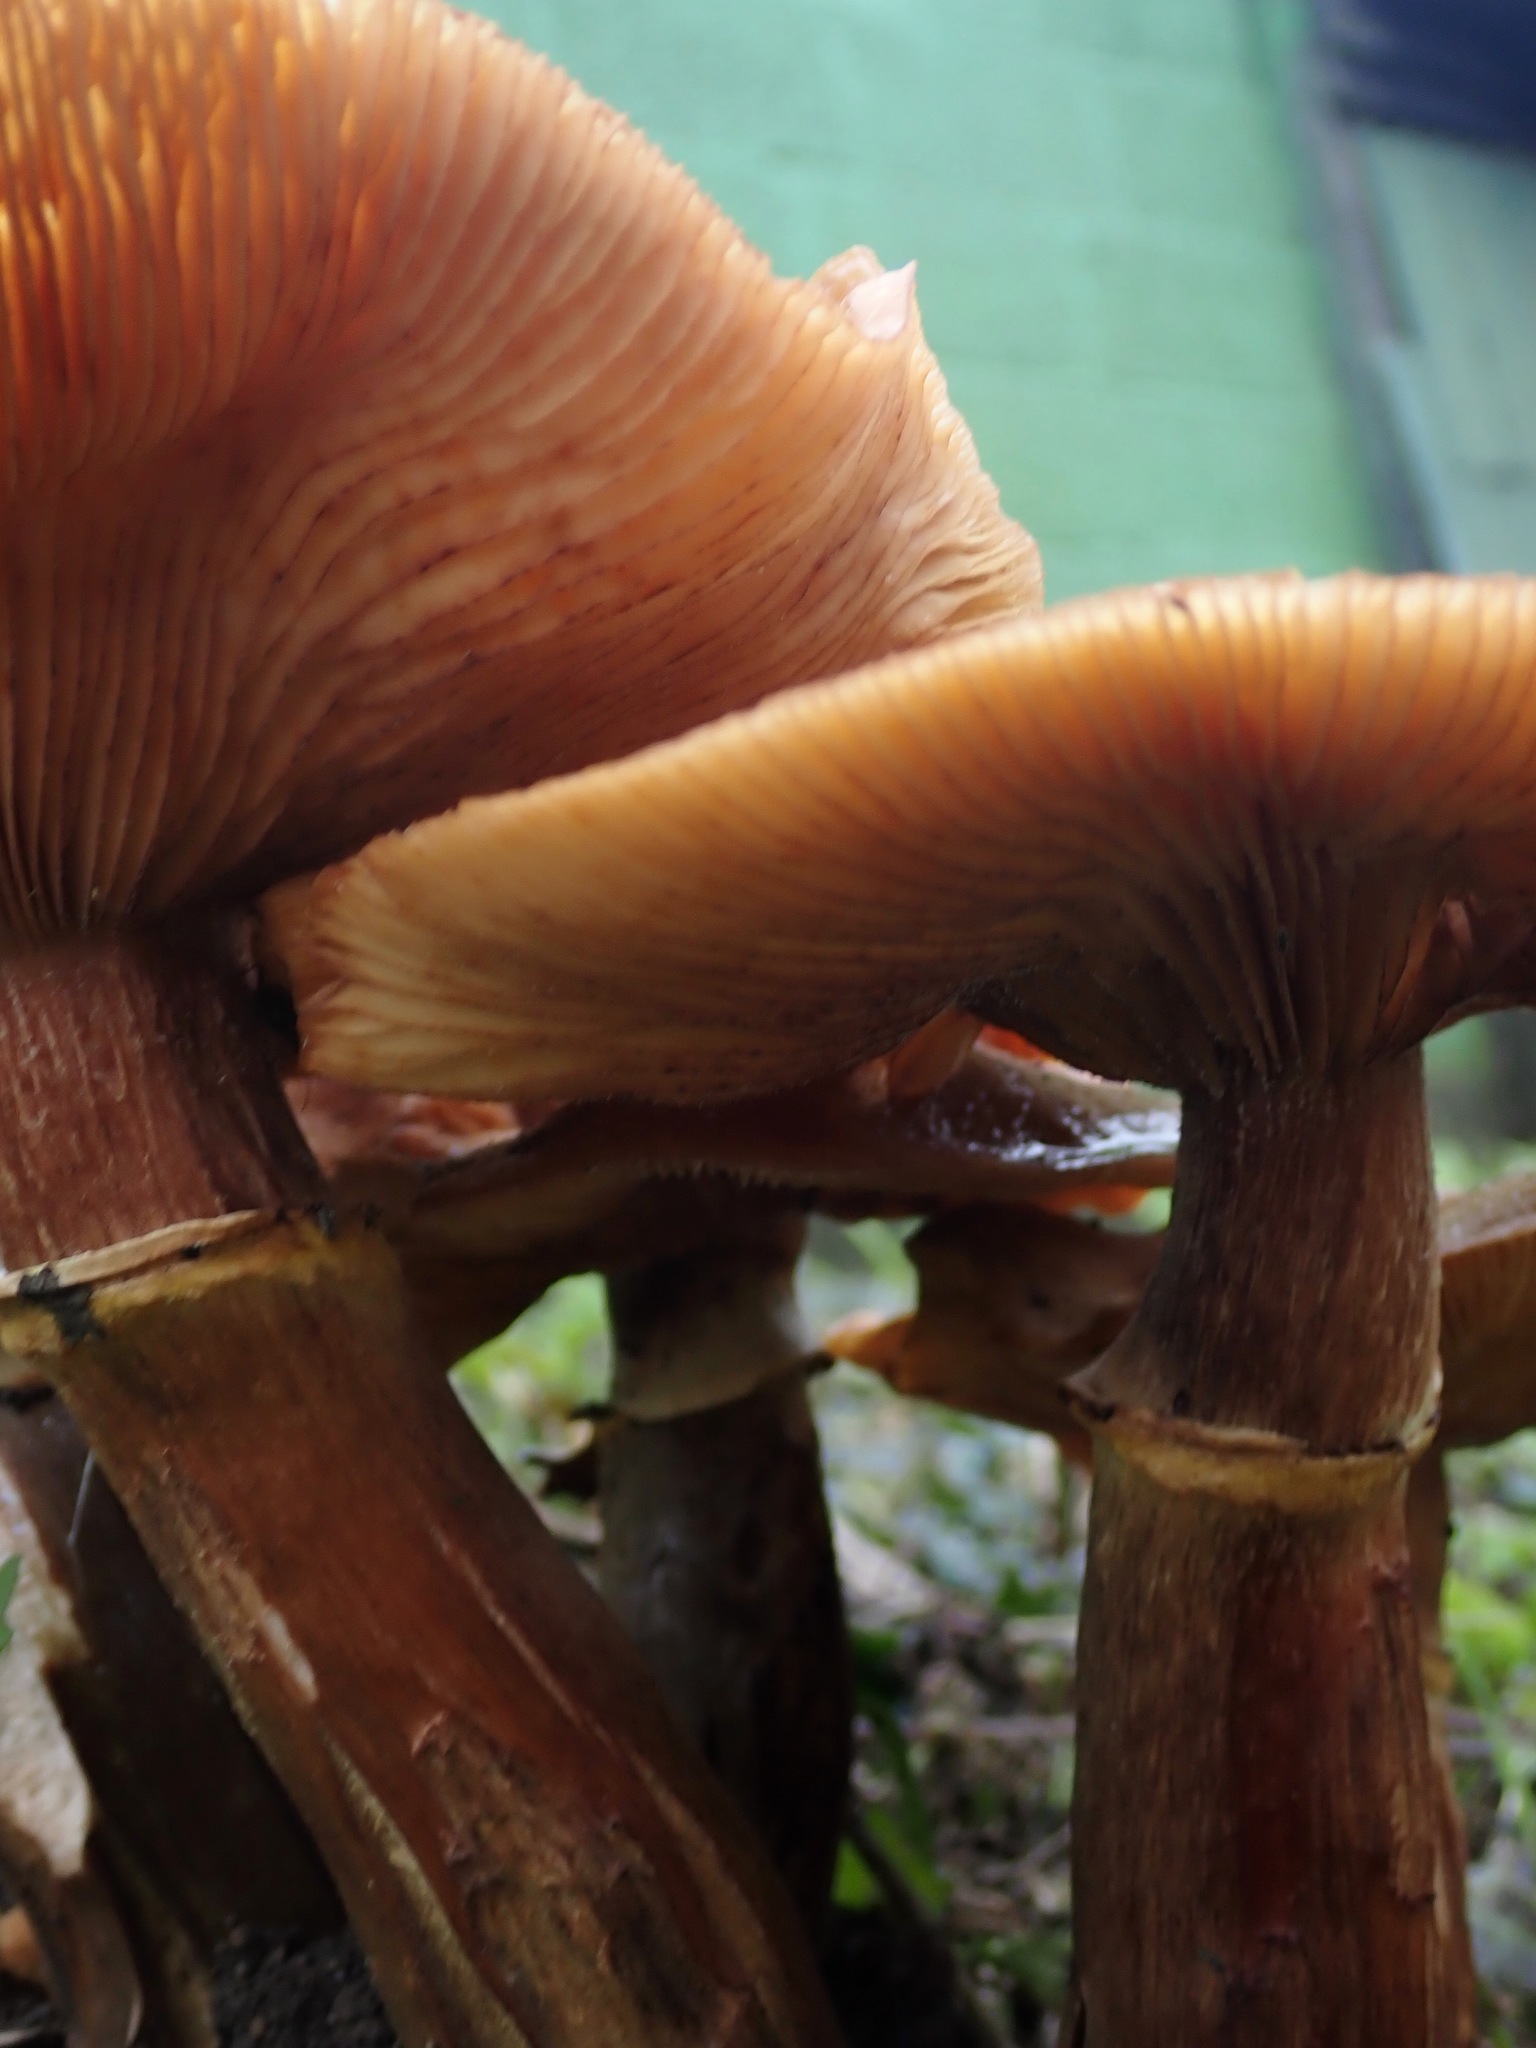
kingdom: Fungi
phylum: Basidiomycota
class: Agaricomycetes
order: Agaricales
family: Physalacriaceae
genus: Armillaria
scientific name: Armillaria mellea
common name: Honey fungus
